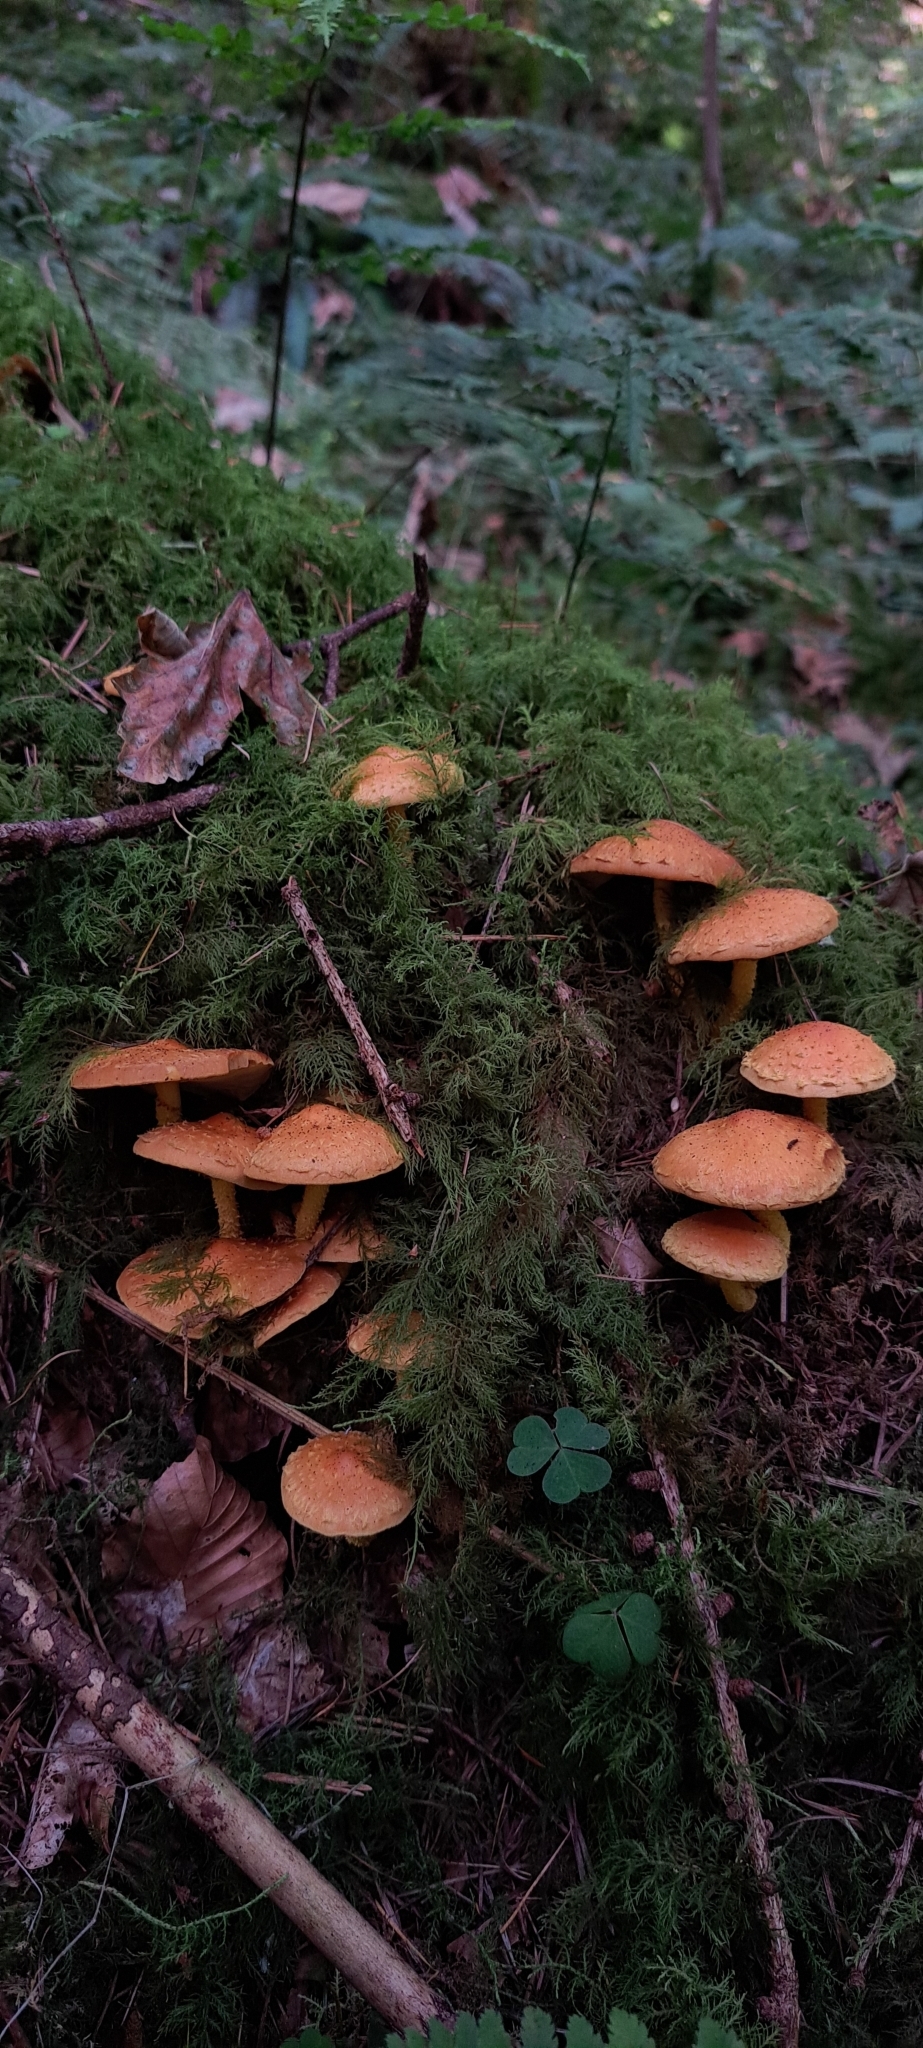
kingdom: Fungi
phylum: Basidiomycota
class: Agaricomycetes
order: Agaricales
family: Strophariaceae
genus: Pholiota
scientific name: Pholiota flammans
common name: Flaming scalycap
